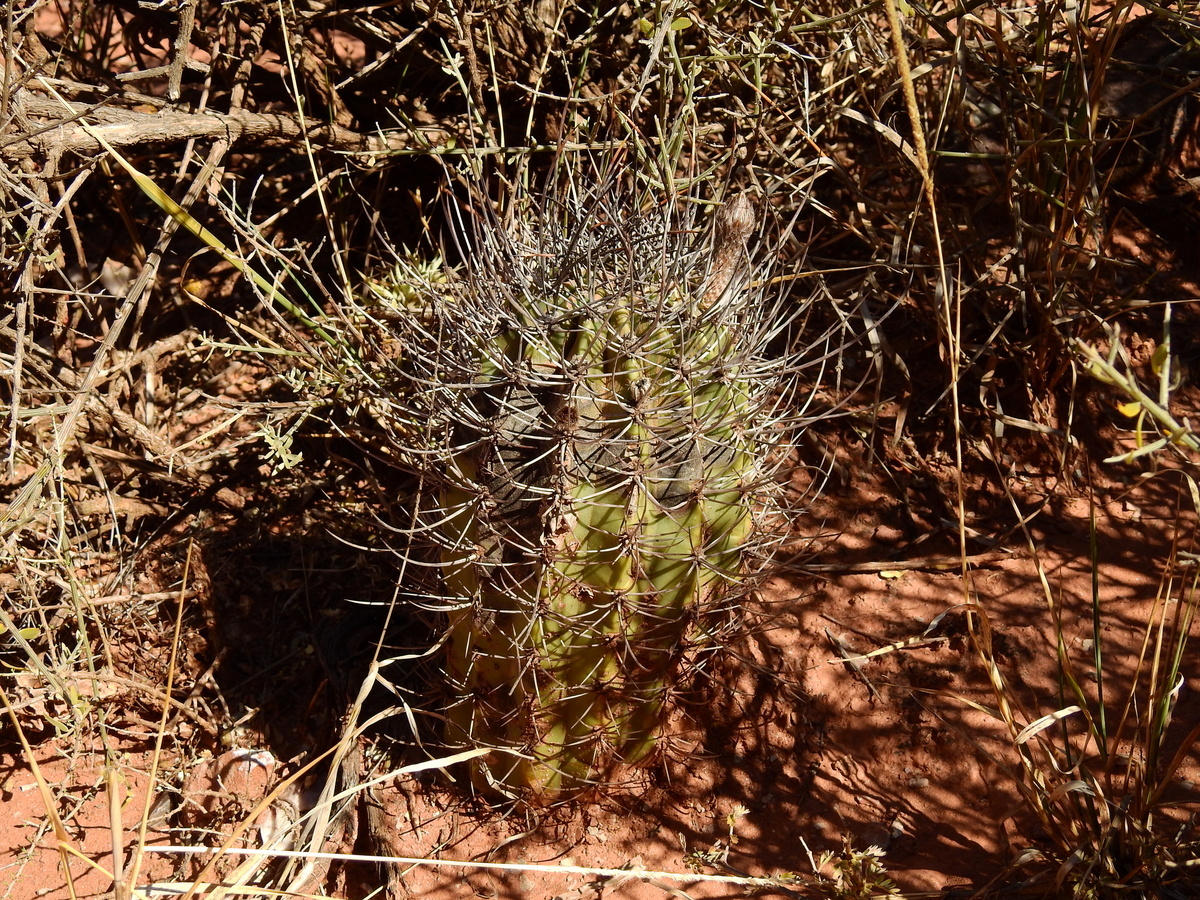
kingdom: Plantae
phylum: Tracheophyta
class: Magnoliopsida
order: Caryophyllales
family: Cactaceae
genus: Acanthocalycium
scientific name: Acanthocalycium leucanthum
